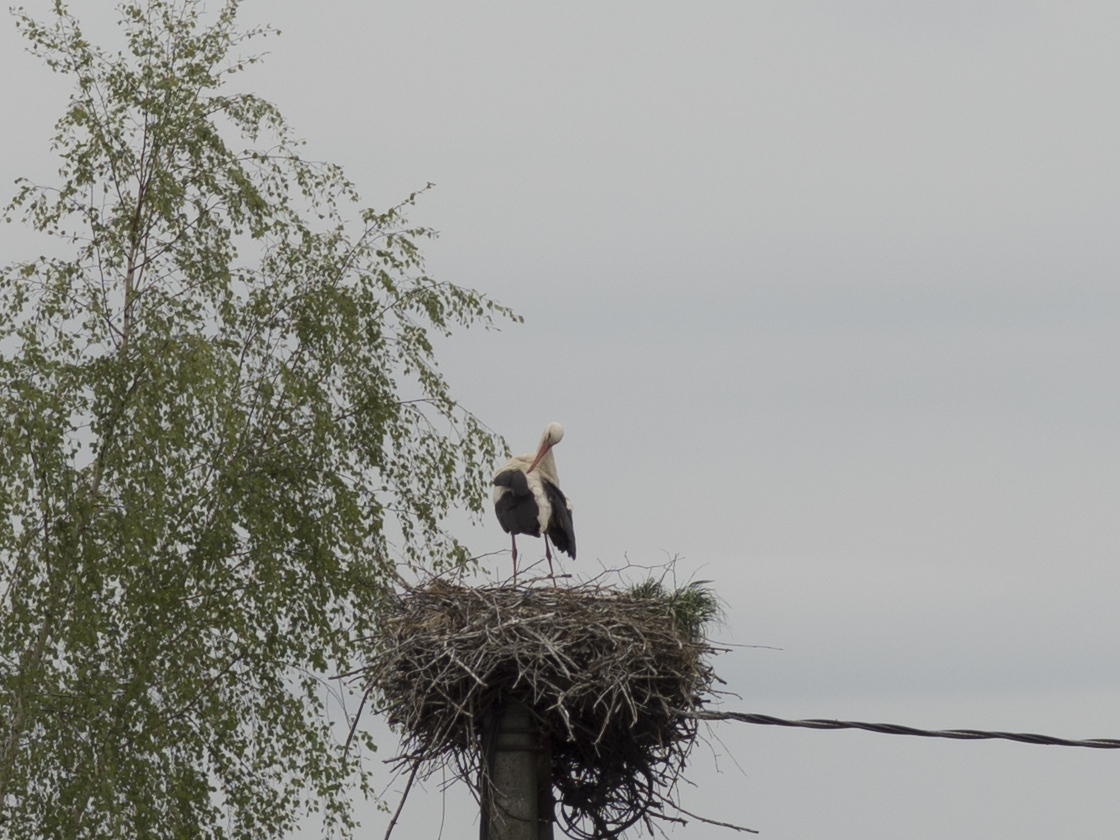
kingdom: Animalia
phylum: Chordata
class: Aves
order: Ciconiiformes
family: Ciconiidae
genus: Ciconia
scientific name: Ciconia ciconia
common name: White stork
